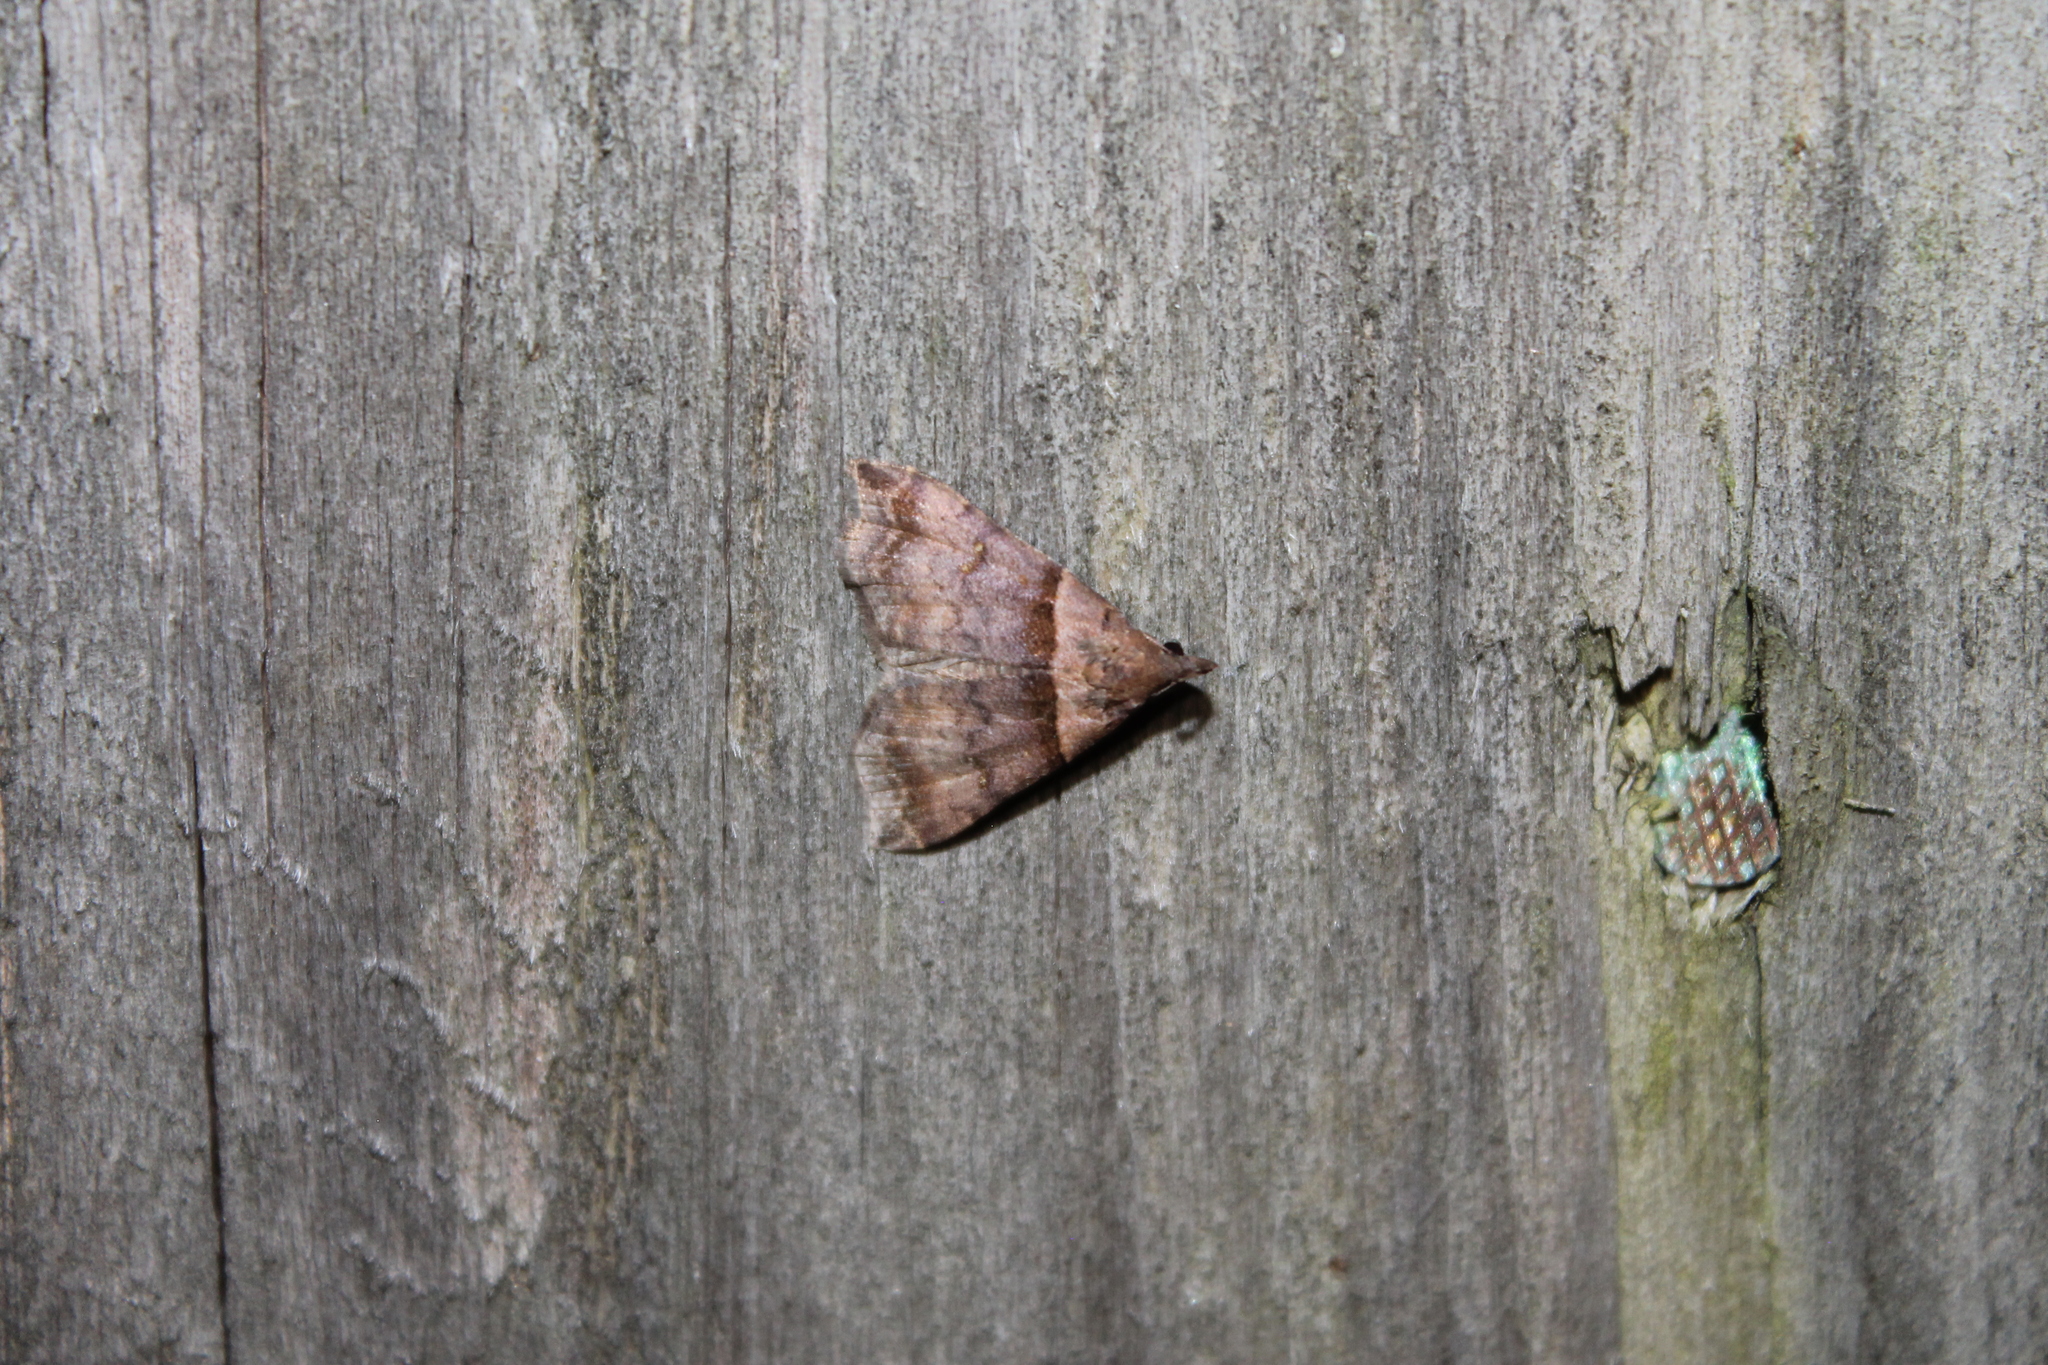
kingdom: Animalia
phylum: Arthropoda
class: Insecta
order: Lepidoptera
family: Erebidae
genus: Lascoria
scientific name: Lascoria ambigualis
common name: Ambiguous moth
